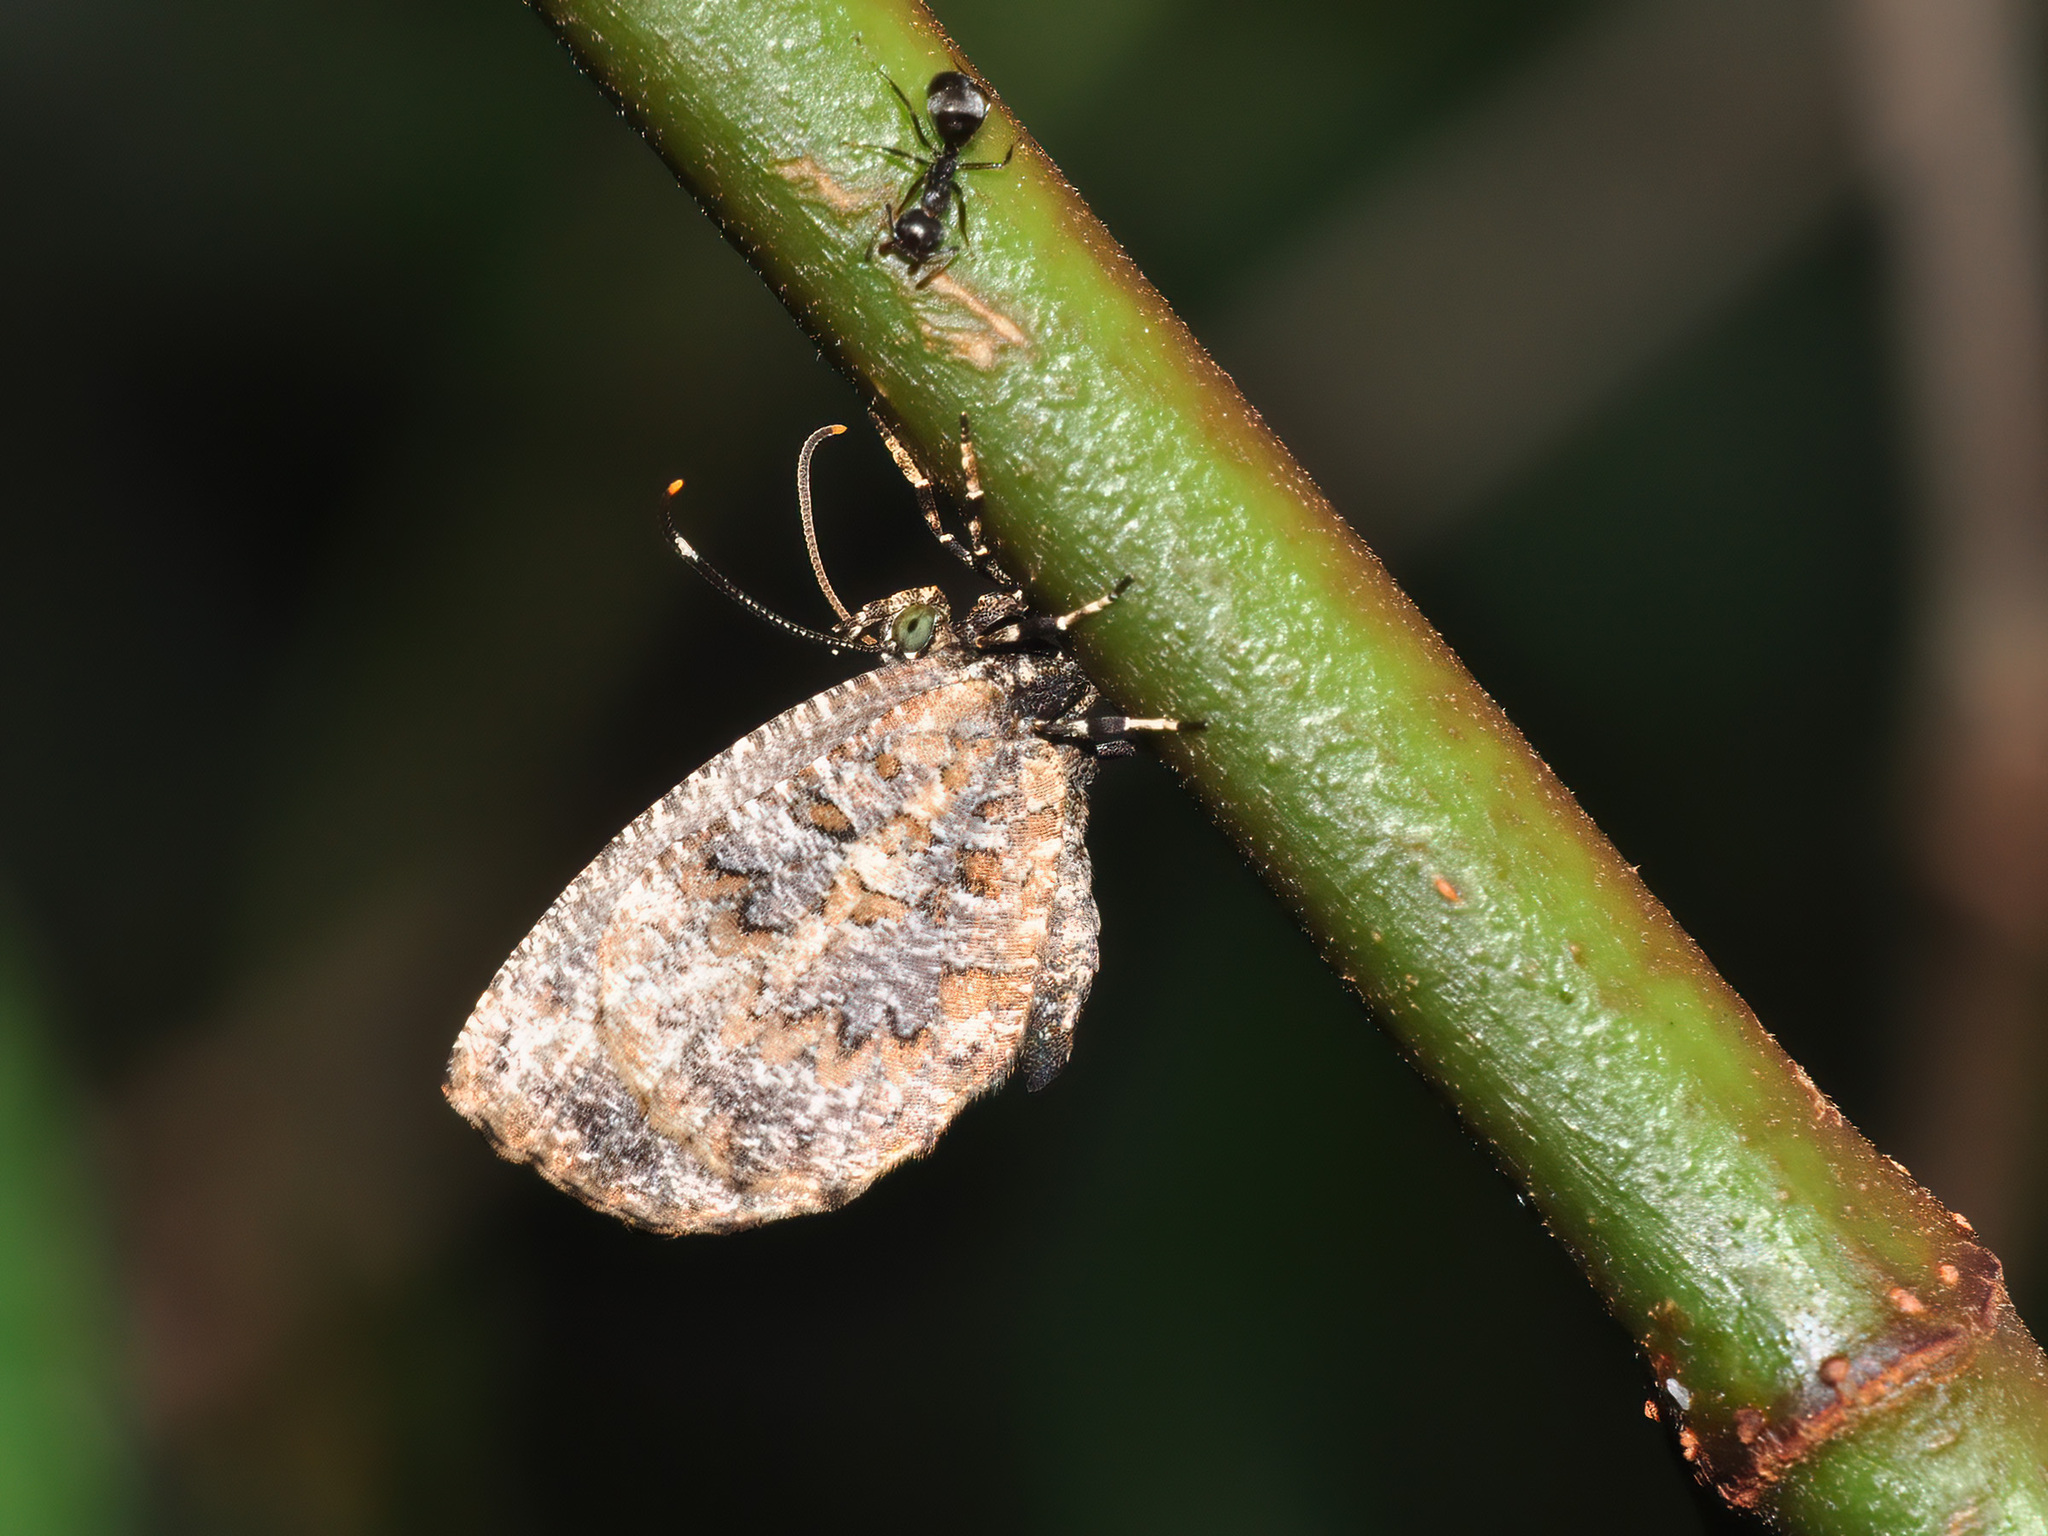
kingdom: Animalia
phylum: Arthropoda
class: Insecta
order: Lepidoptera
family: Lycaenidae
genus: Logania
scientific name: Logania marmorata
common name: Pale mottle
